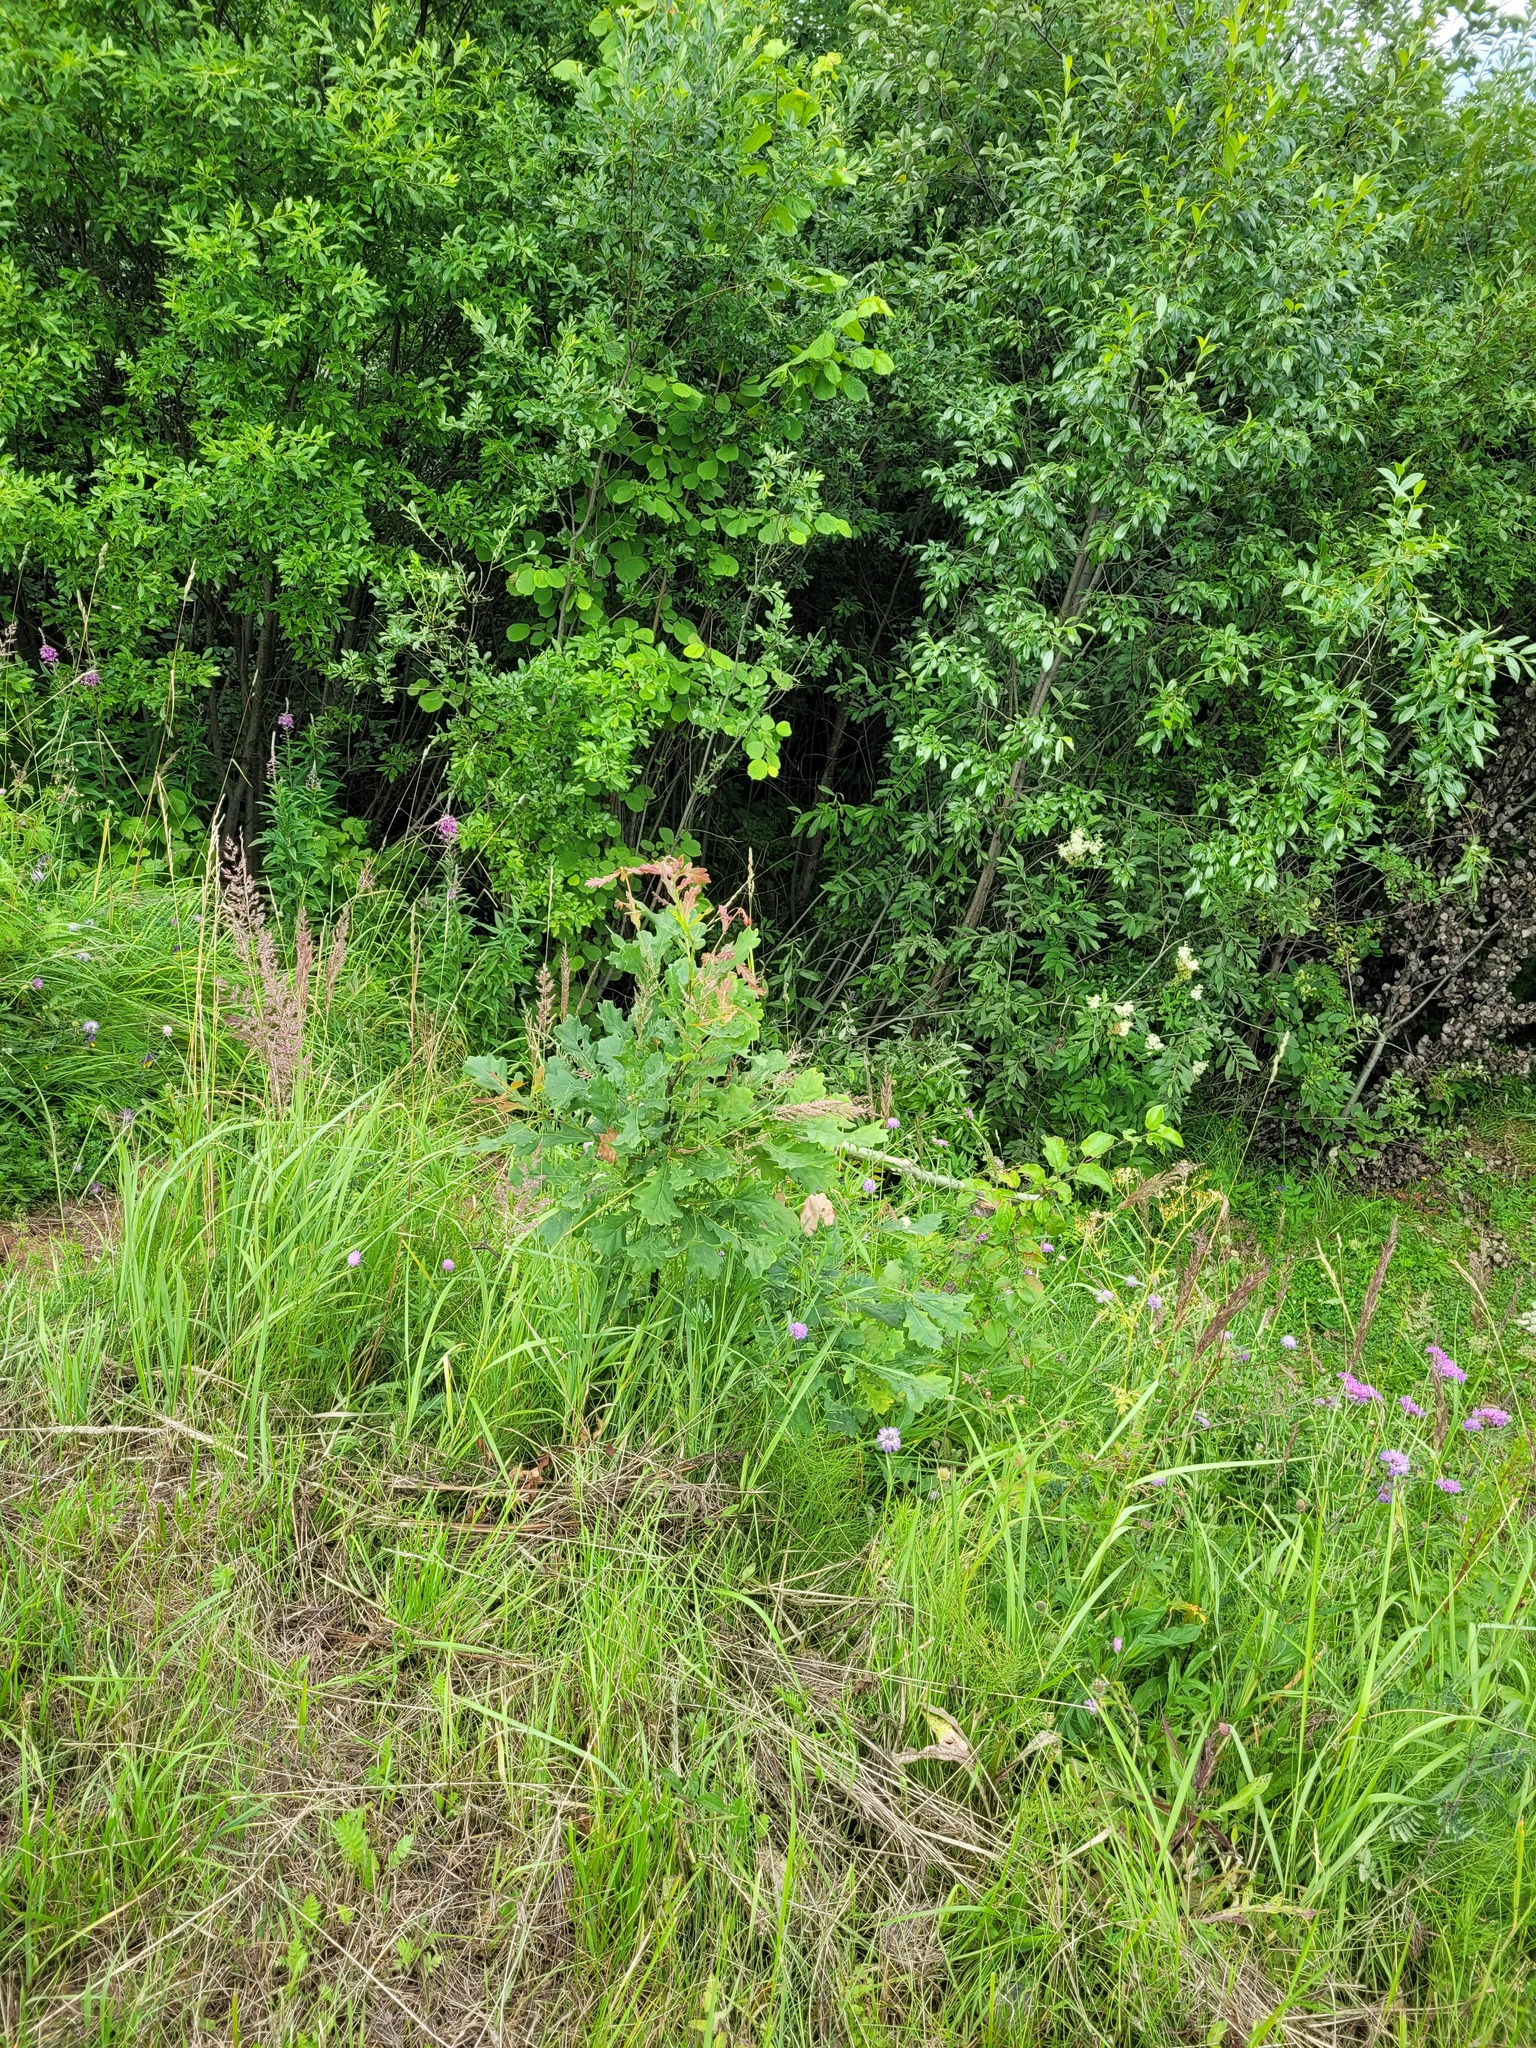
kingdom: Plantae
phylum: Tracheophyta
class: Magnoliopsida
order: Fagales
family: Fagaceae
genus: Quercus
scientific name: Quercus robur
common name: Pedunculate oak
